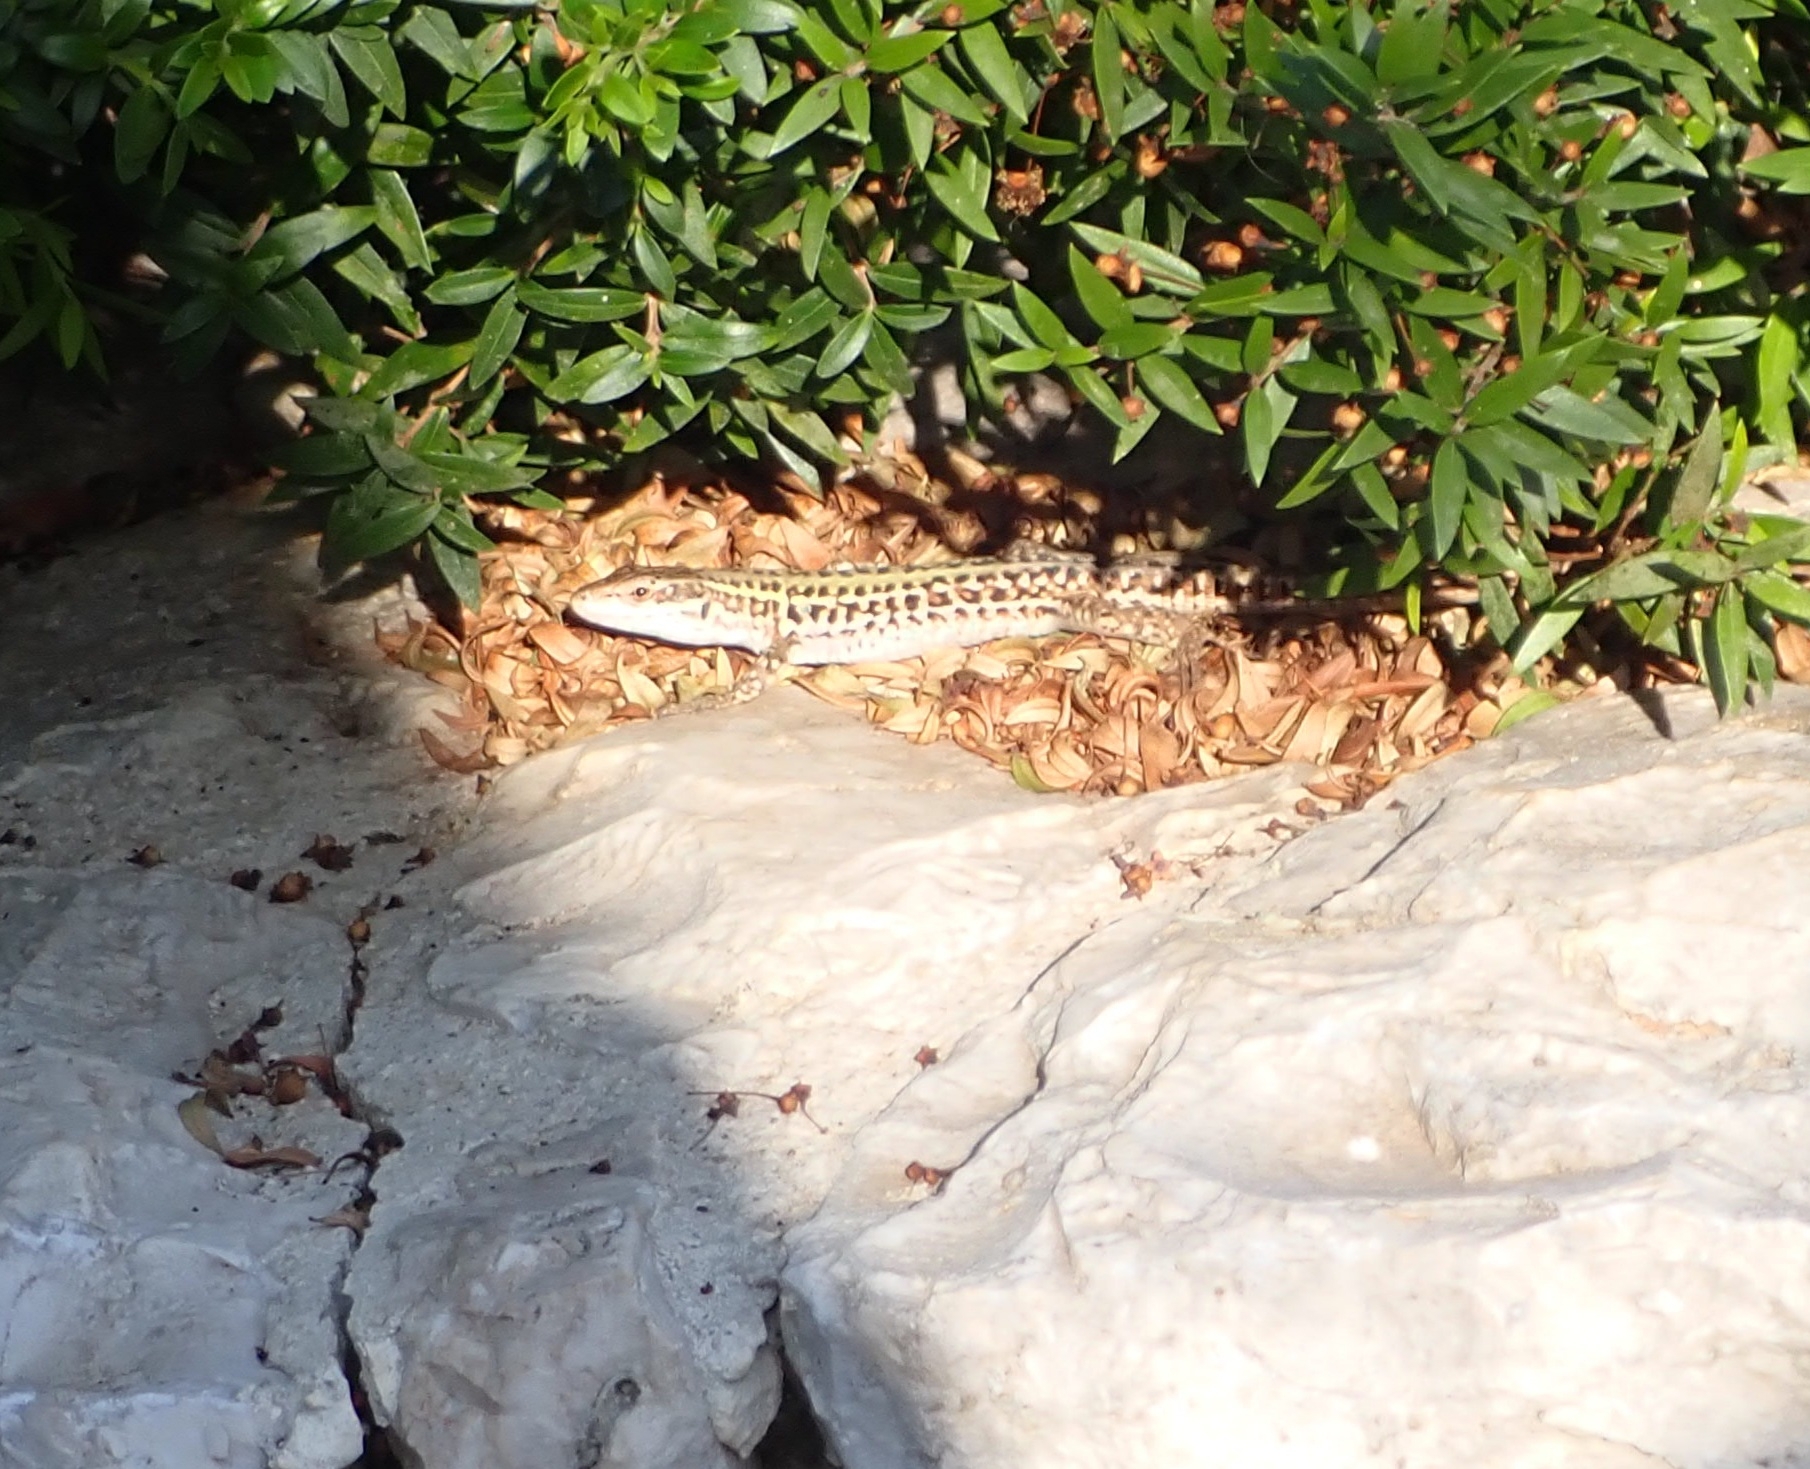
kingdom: Animalia
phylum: Chordata
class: Squamata
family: Lacertidae
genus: Podarcis
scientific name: Podarcis siculus
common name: Italian wall lizard
